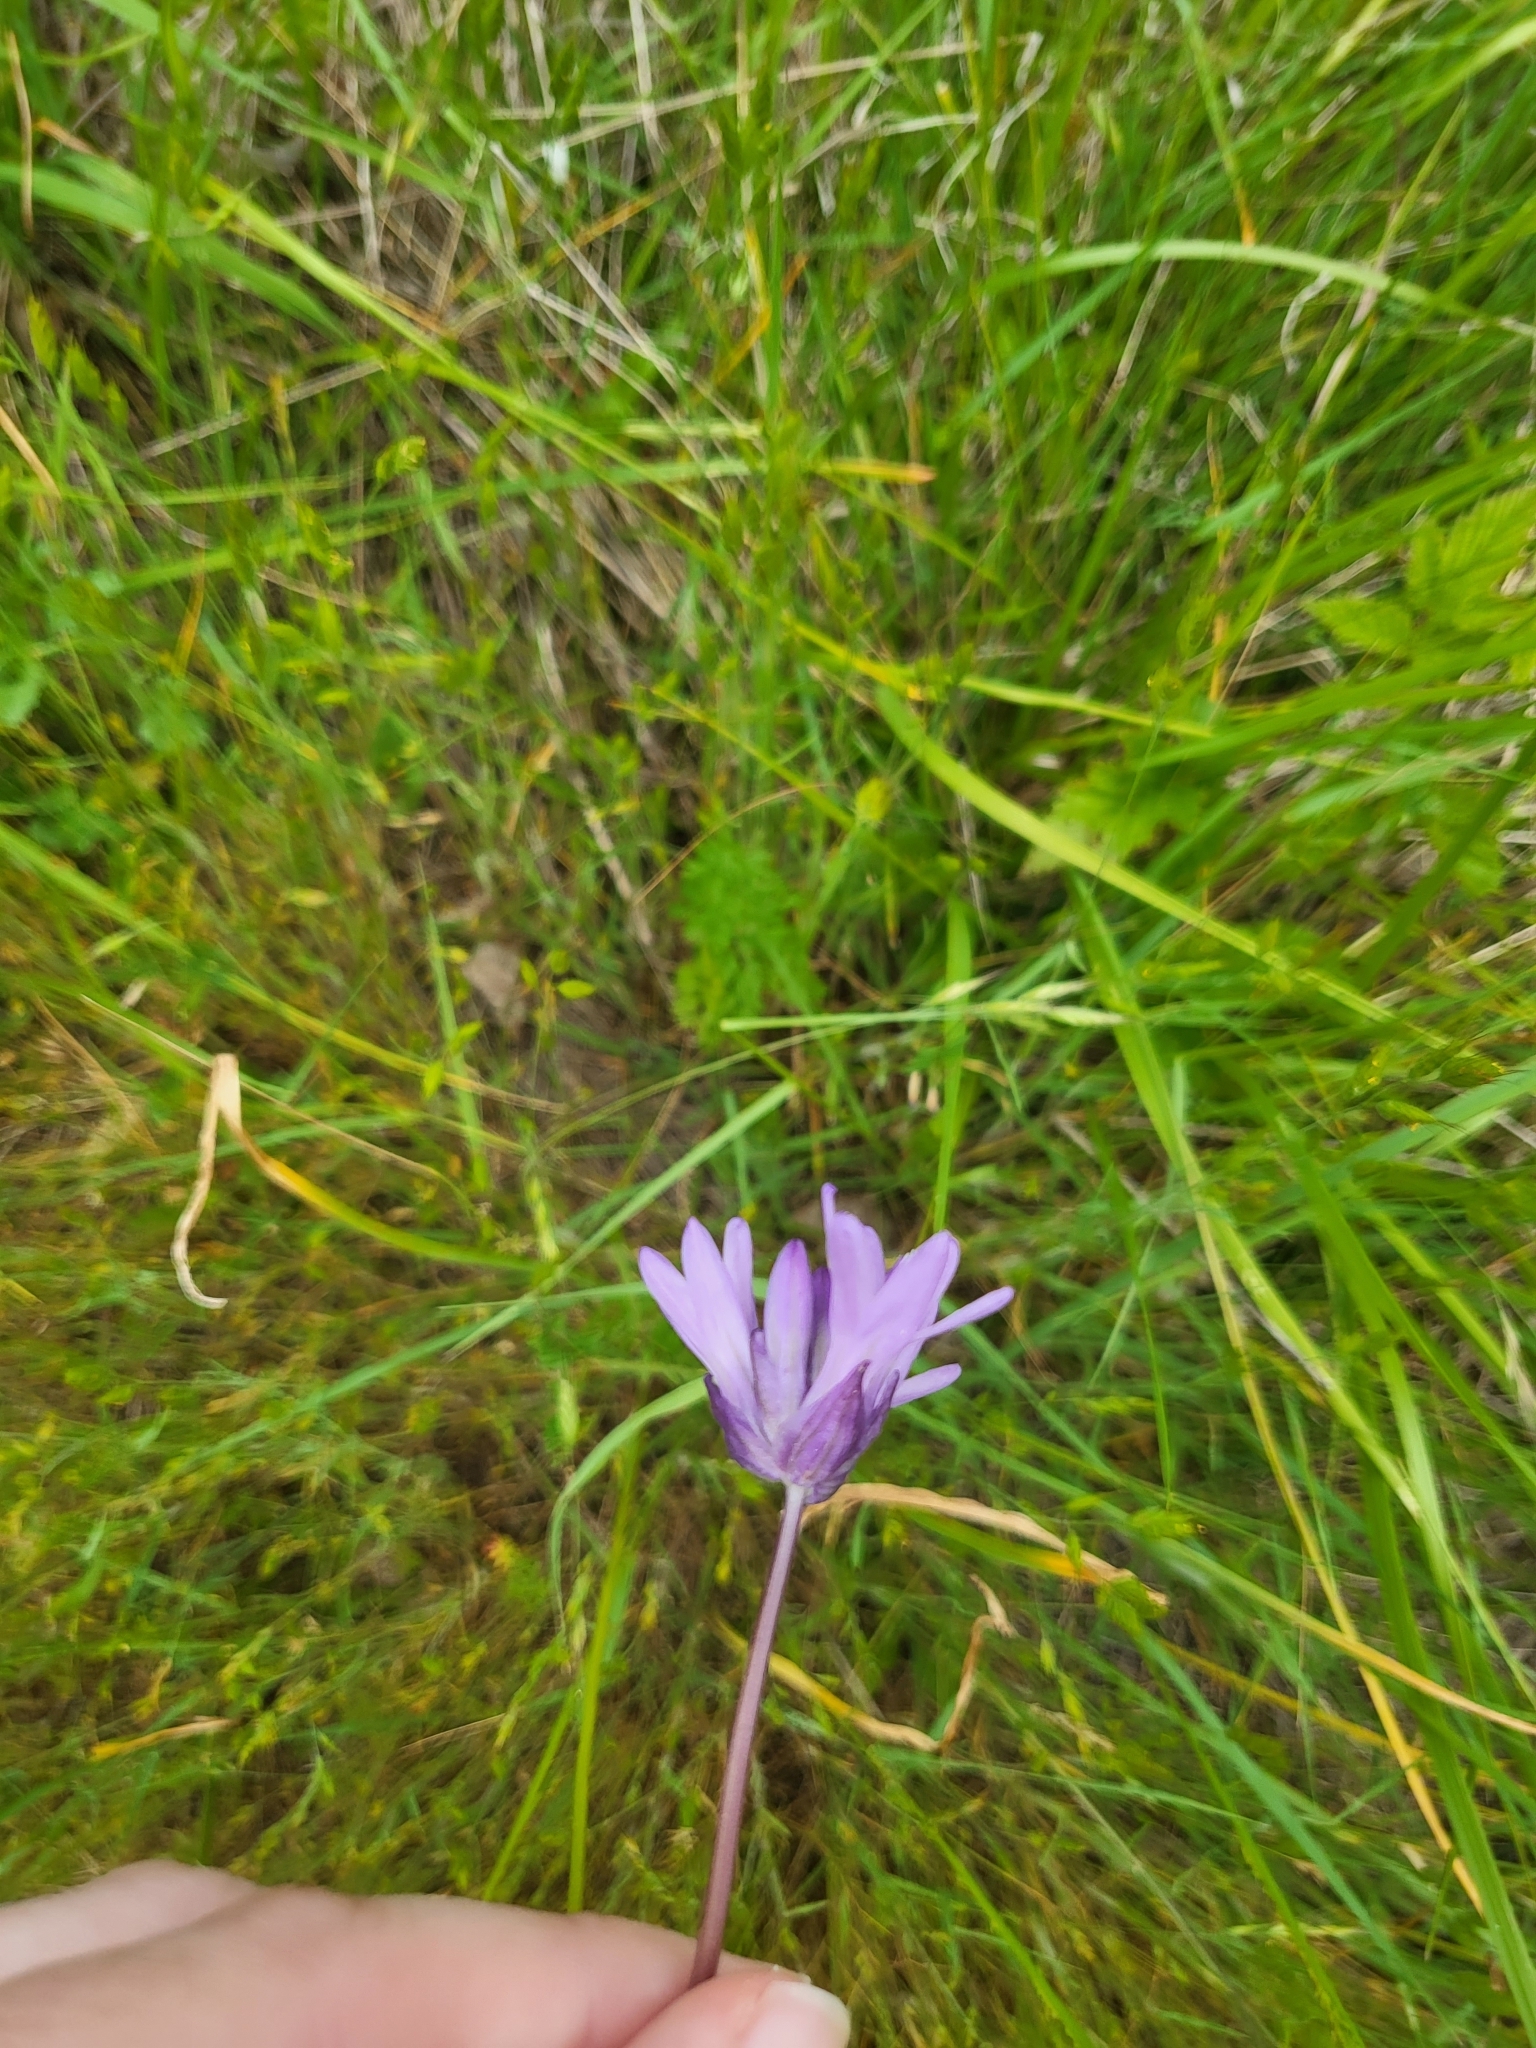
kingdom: Plantae
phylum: Tracheophyta
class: Liliopsida
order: Asparagales
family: Asparagaceae
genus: Dichelostemma
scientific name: Dichelostemma congestum
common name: Fork-tooth ookow
